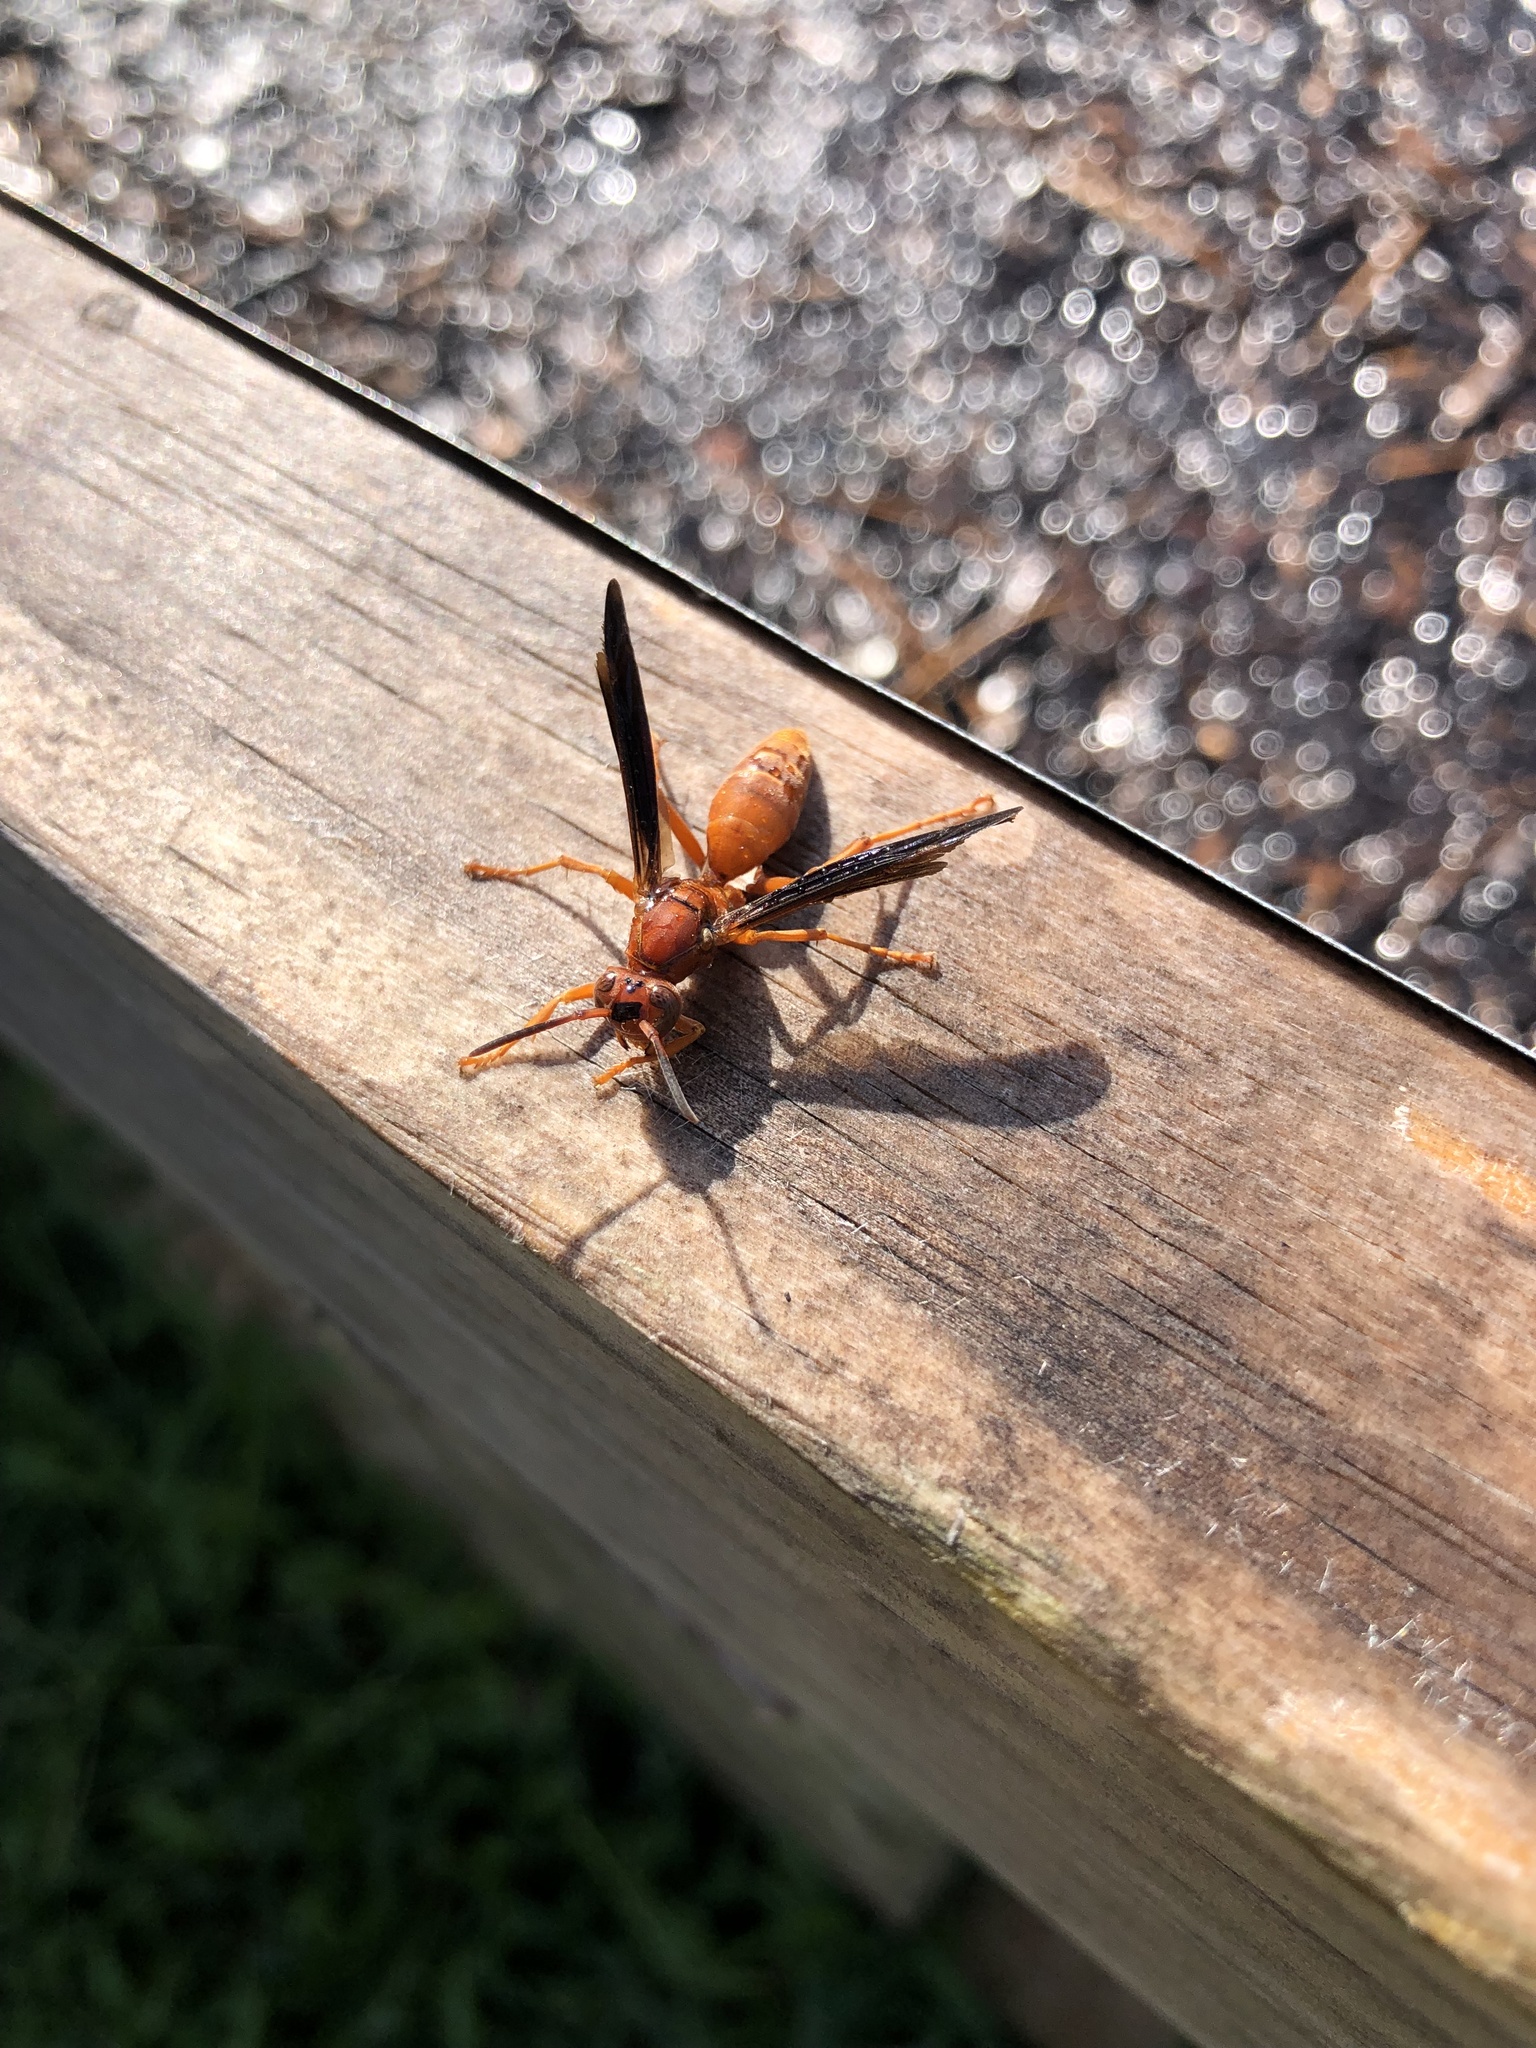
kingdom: Animalia
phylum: Arthropoda
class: Insecta
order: Hymenoptera
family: Vespidae
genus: Fuscopolistes
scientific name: Fuscopolistes
